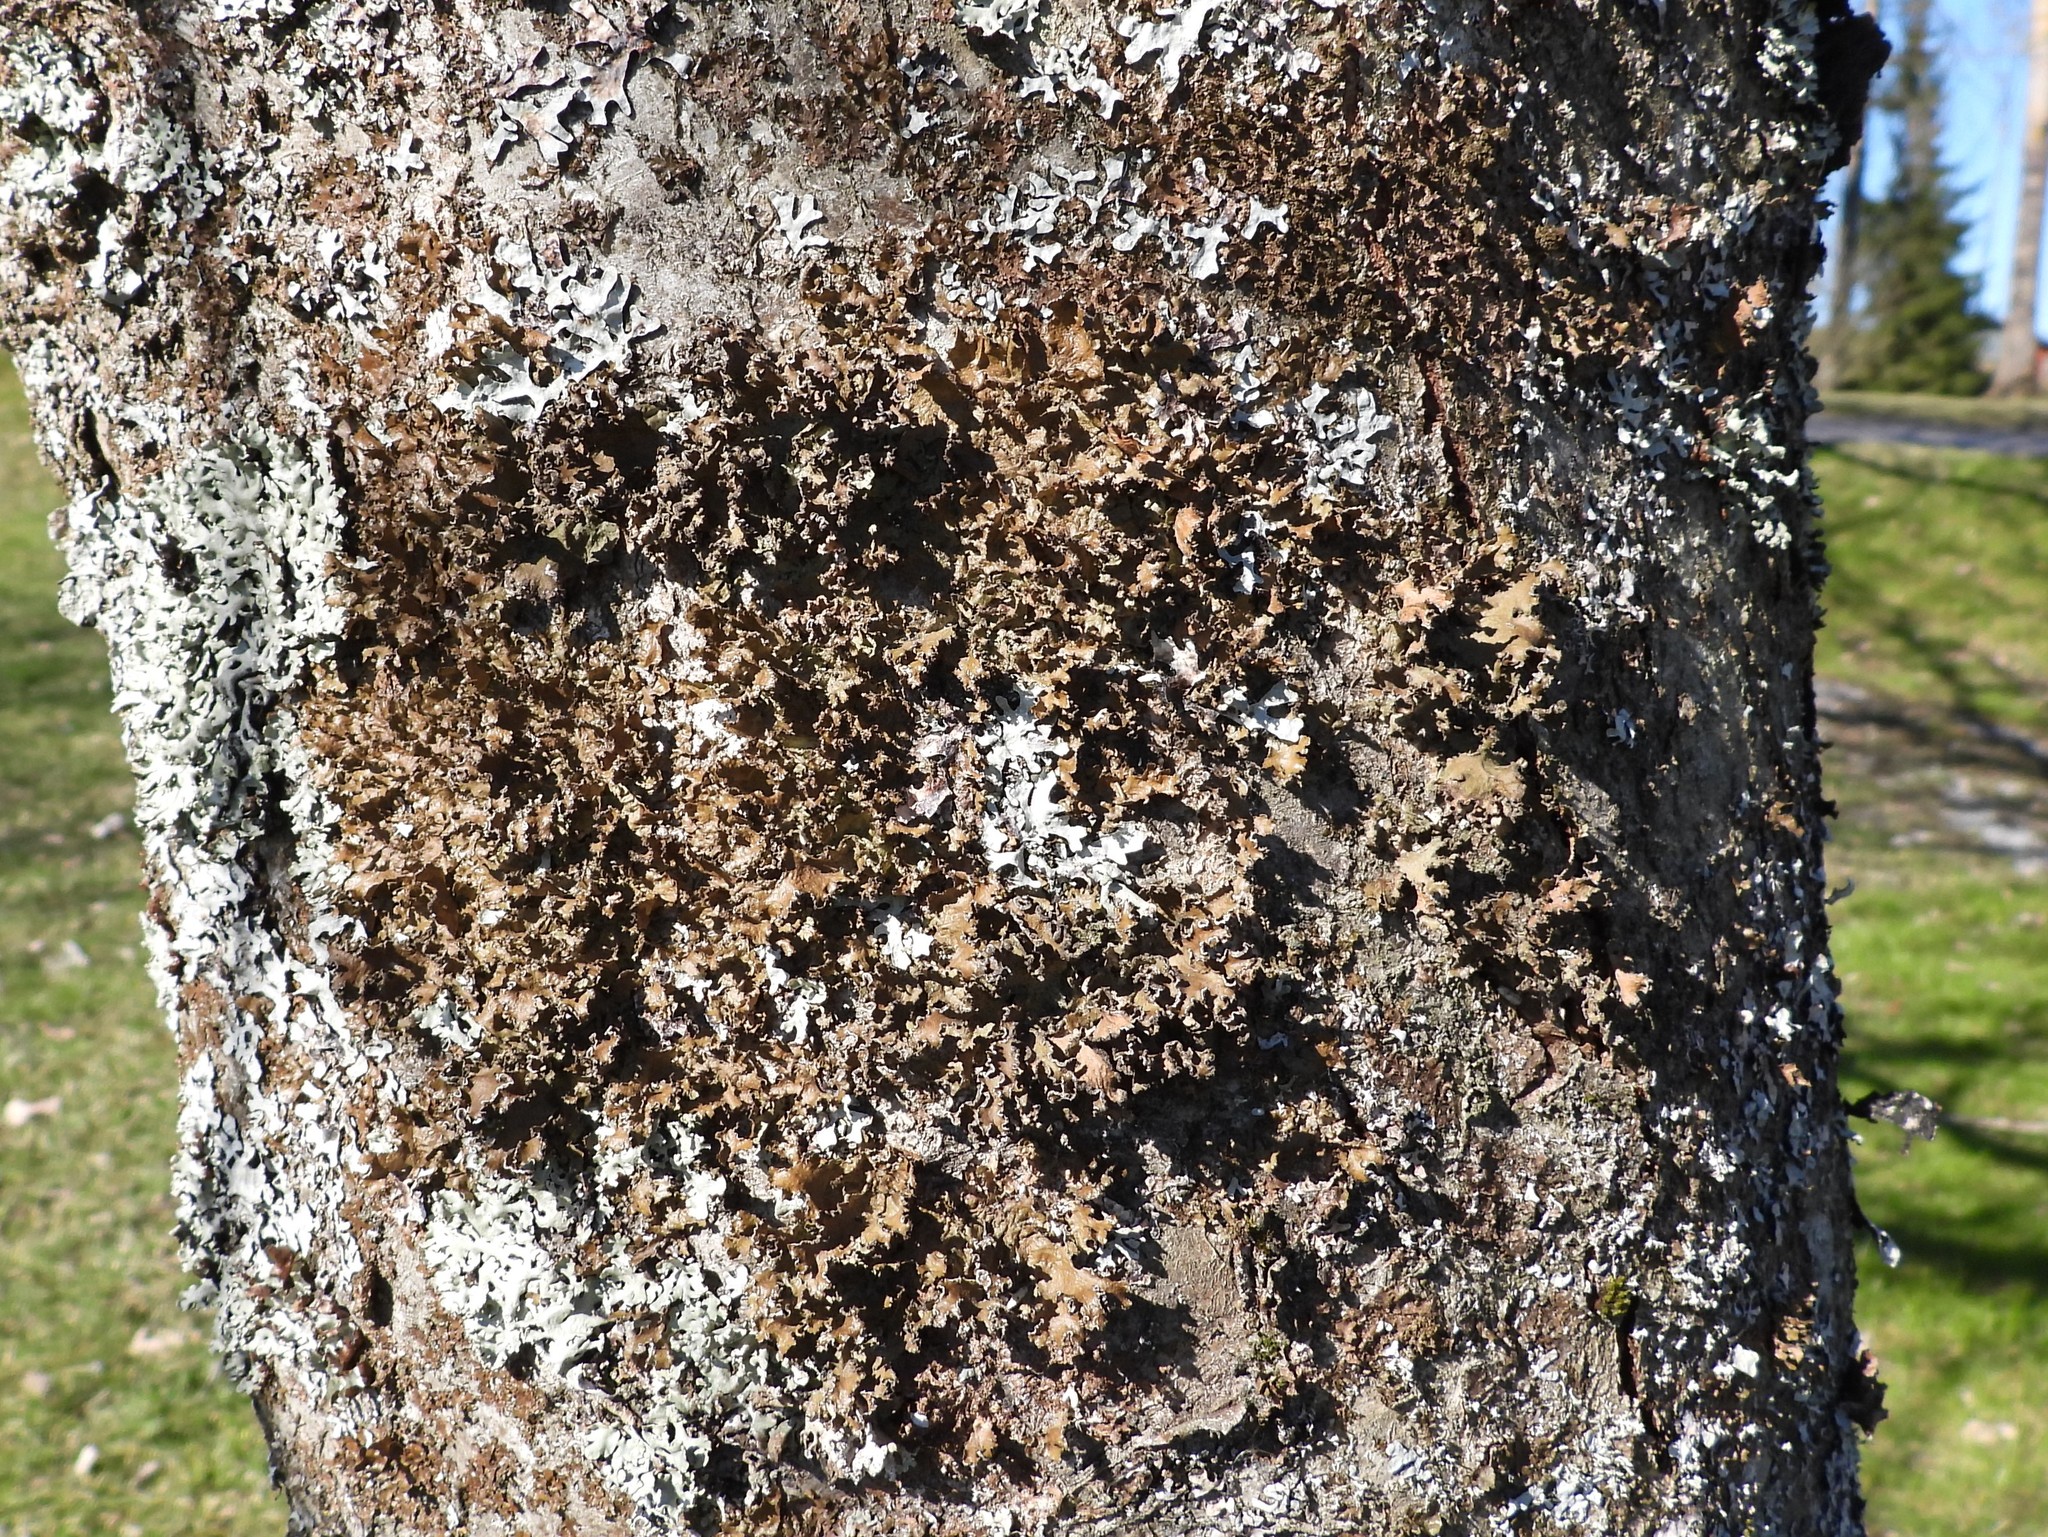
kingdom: Fungi
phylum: Ascomycota
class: Lecanoromycetes
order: Lecanorales
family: Parmeliaceae
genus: Nephromopsis
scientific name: Nephromopsis chlorophylla
